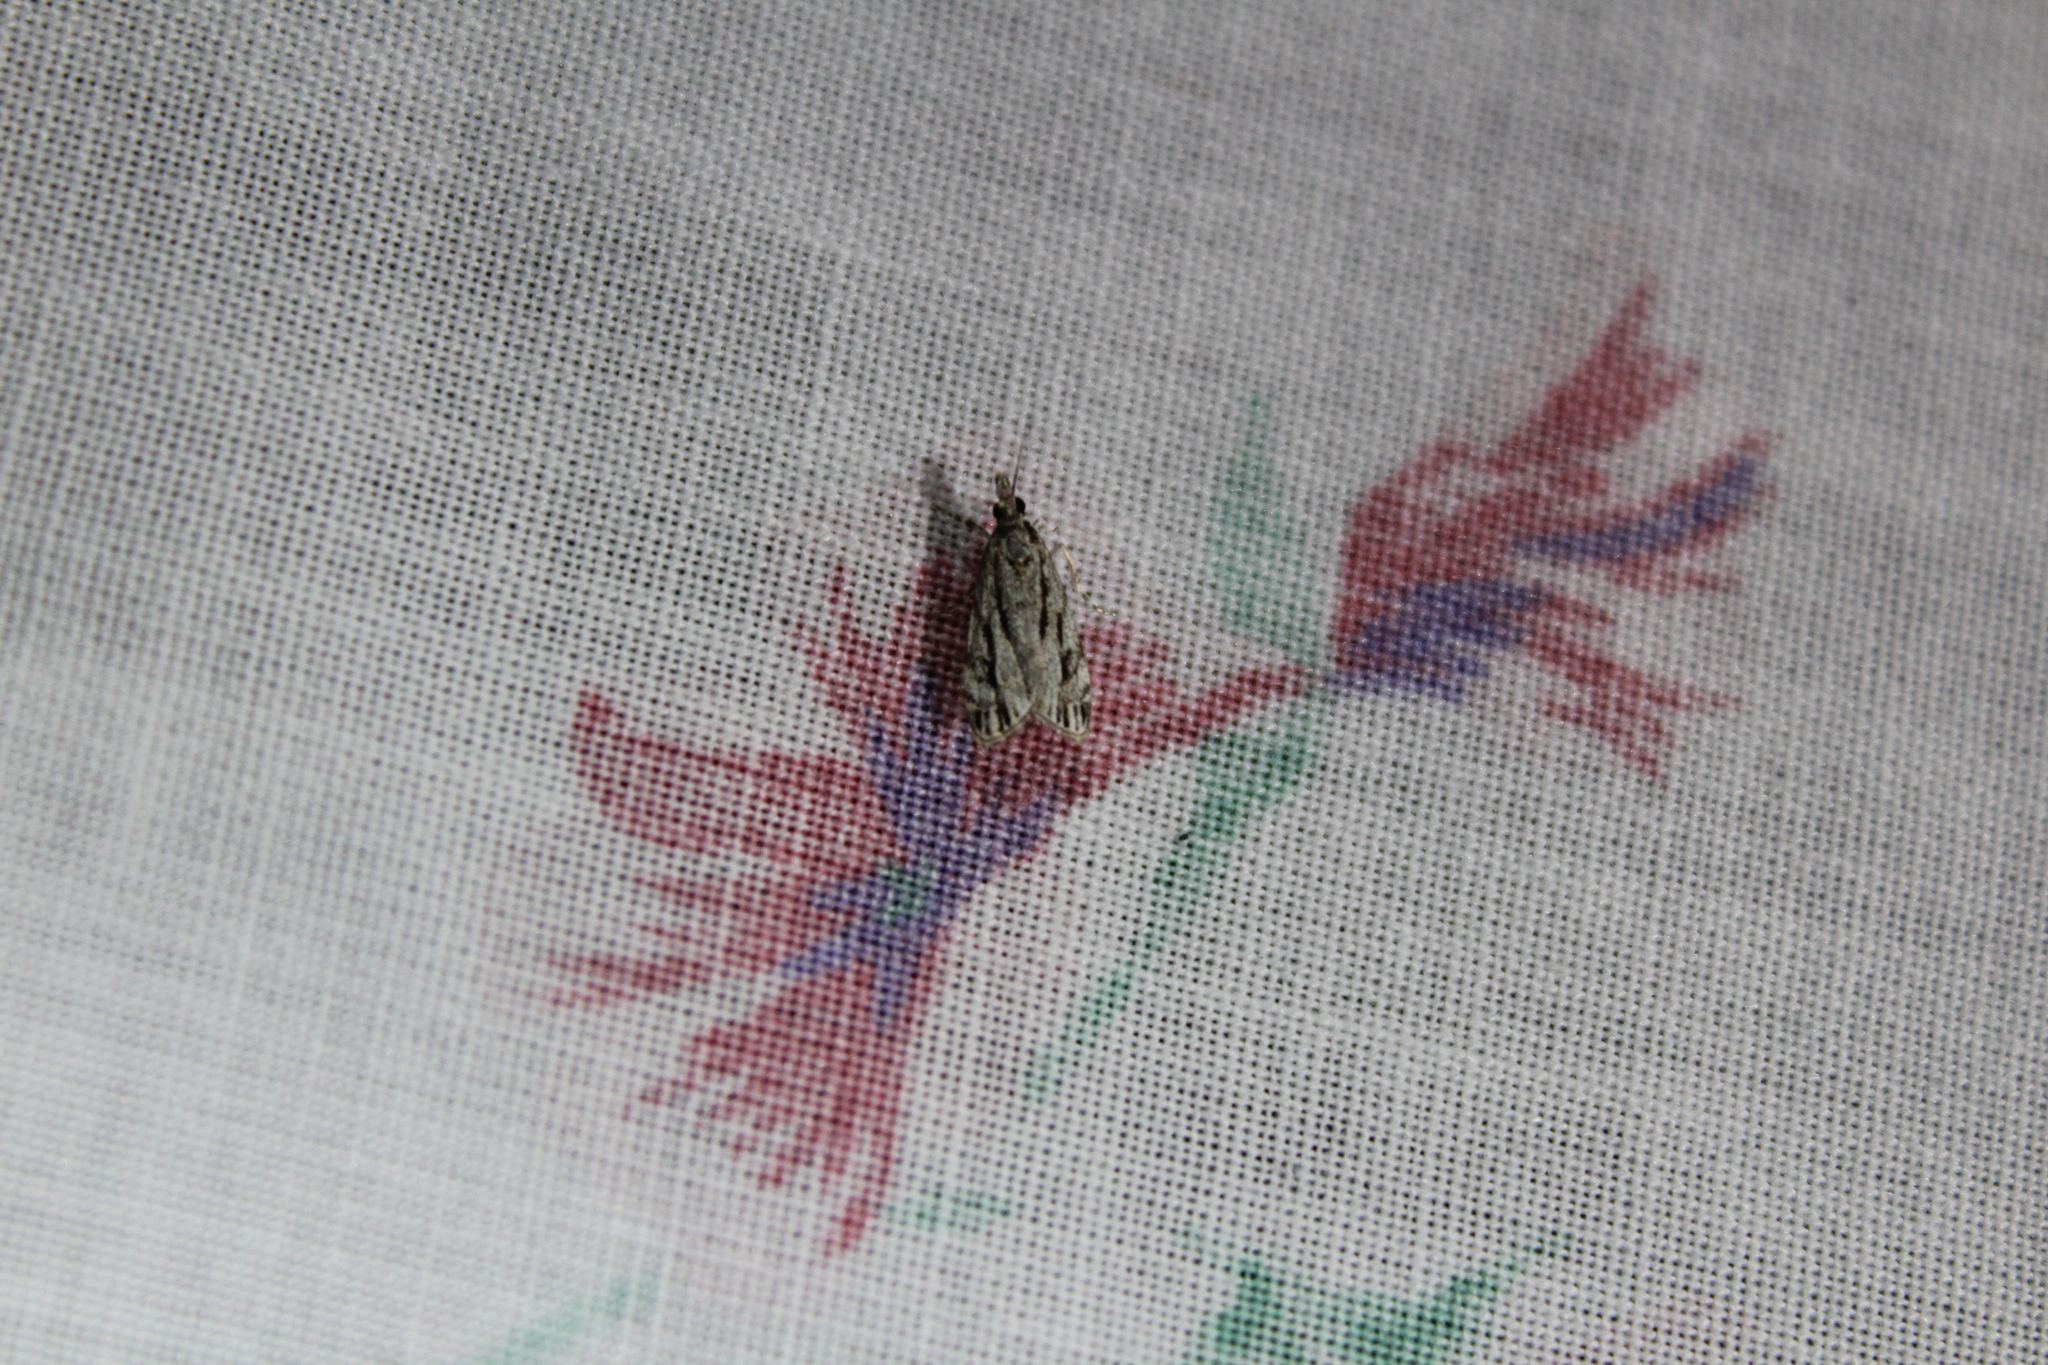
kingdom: Animalia
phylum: Arthropoda
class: Insecta
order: Lepidoptera
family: Crambidae
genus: Eudonia
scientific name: Eudonia strigalis
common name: Striped eudonia moth
